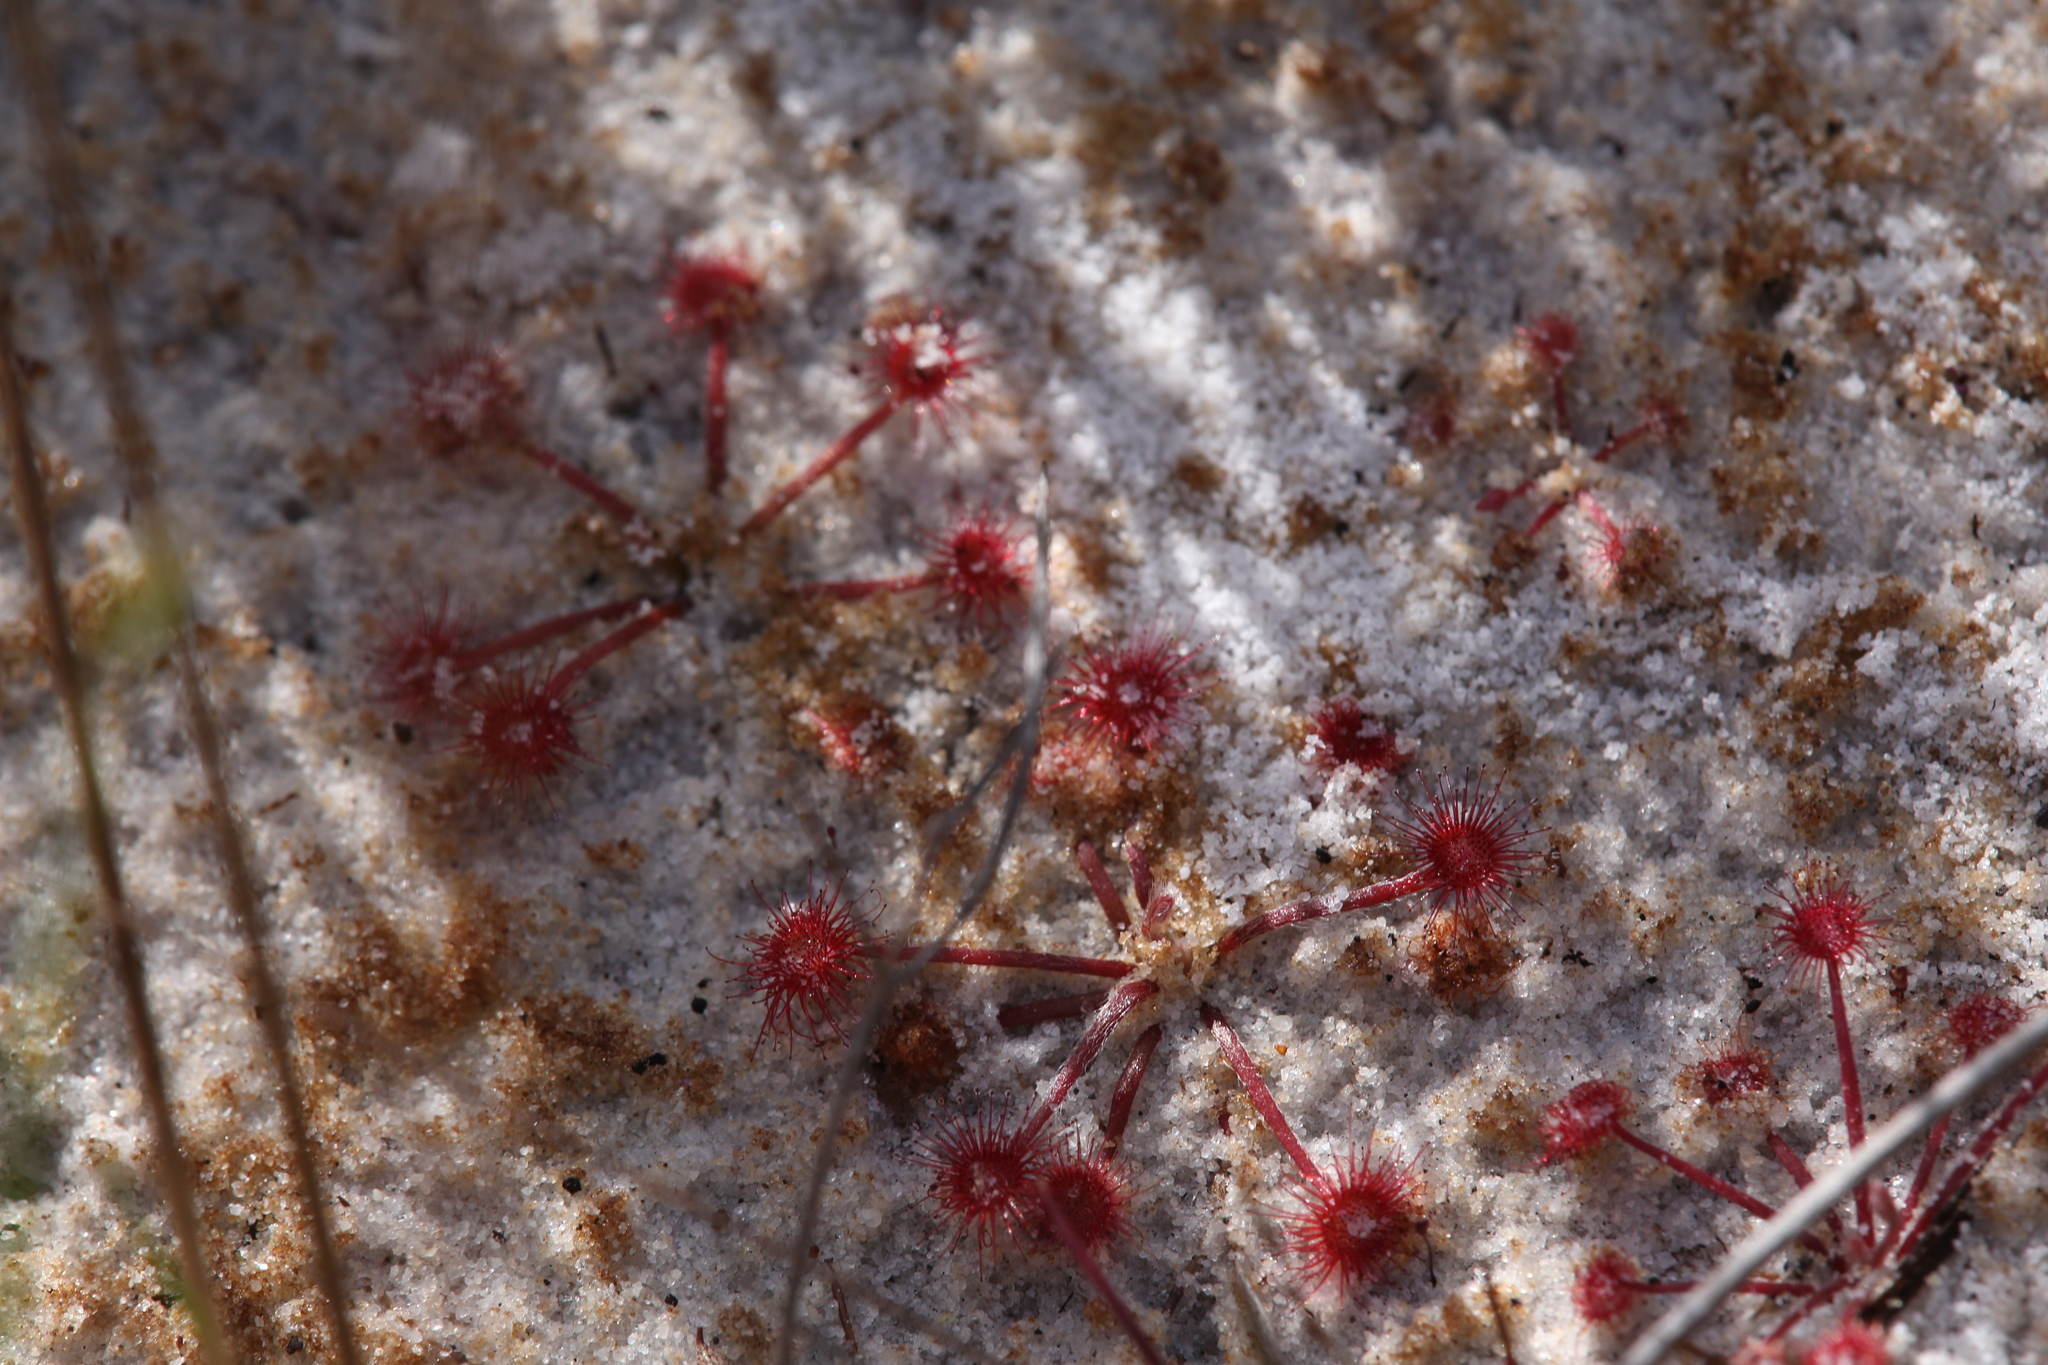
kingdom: Plantae
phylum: Tracheophyta
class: Magnoliopsida
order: Caryophyllales
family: Droseraceae
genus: Drosera
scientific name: Drosera petiolaris
